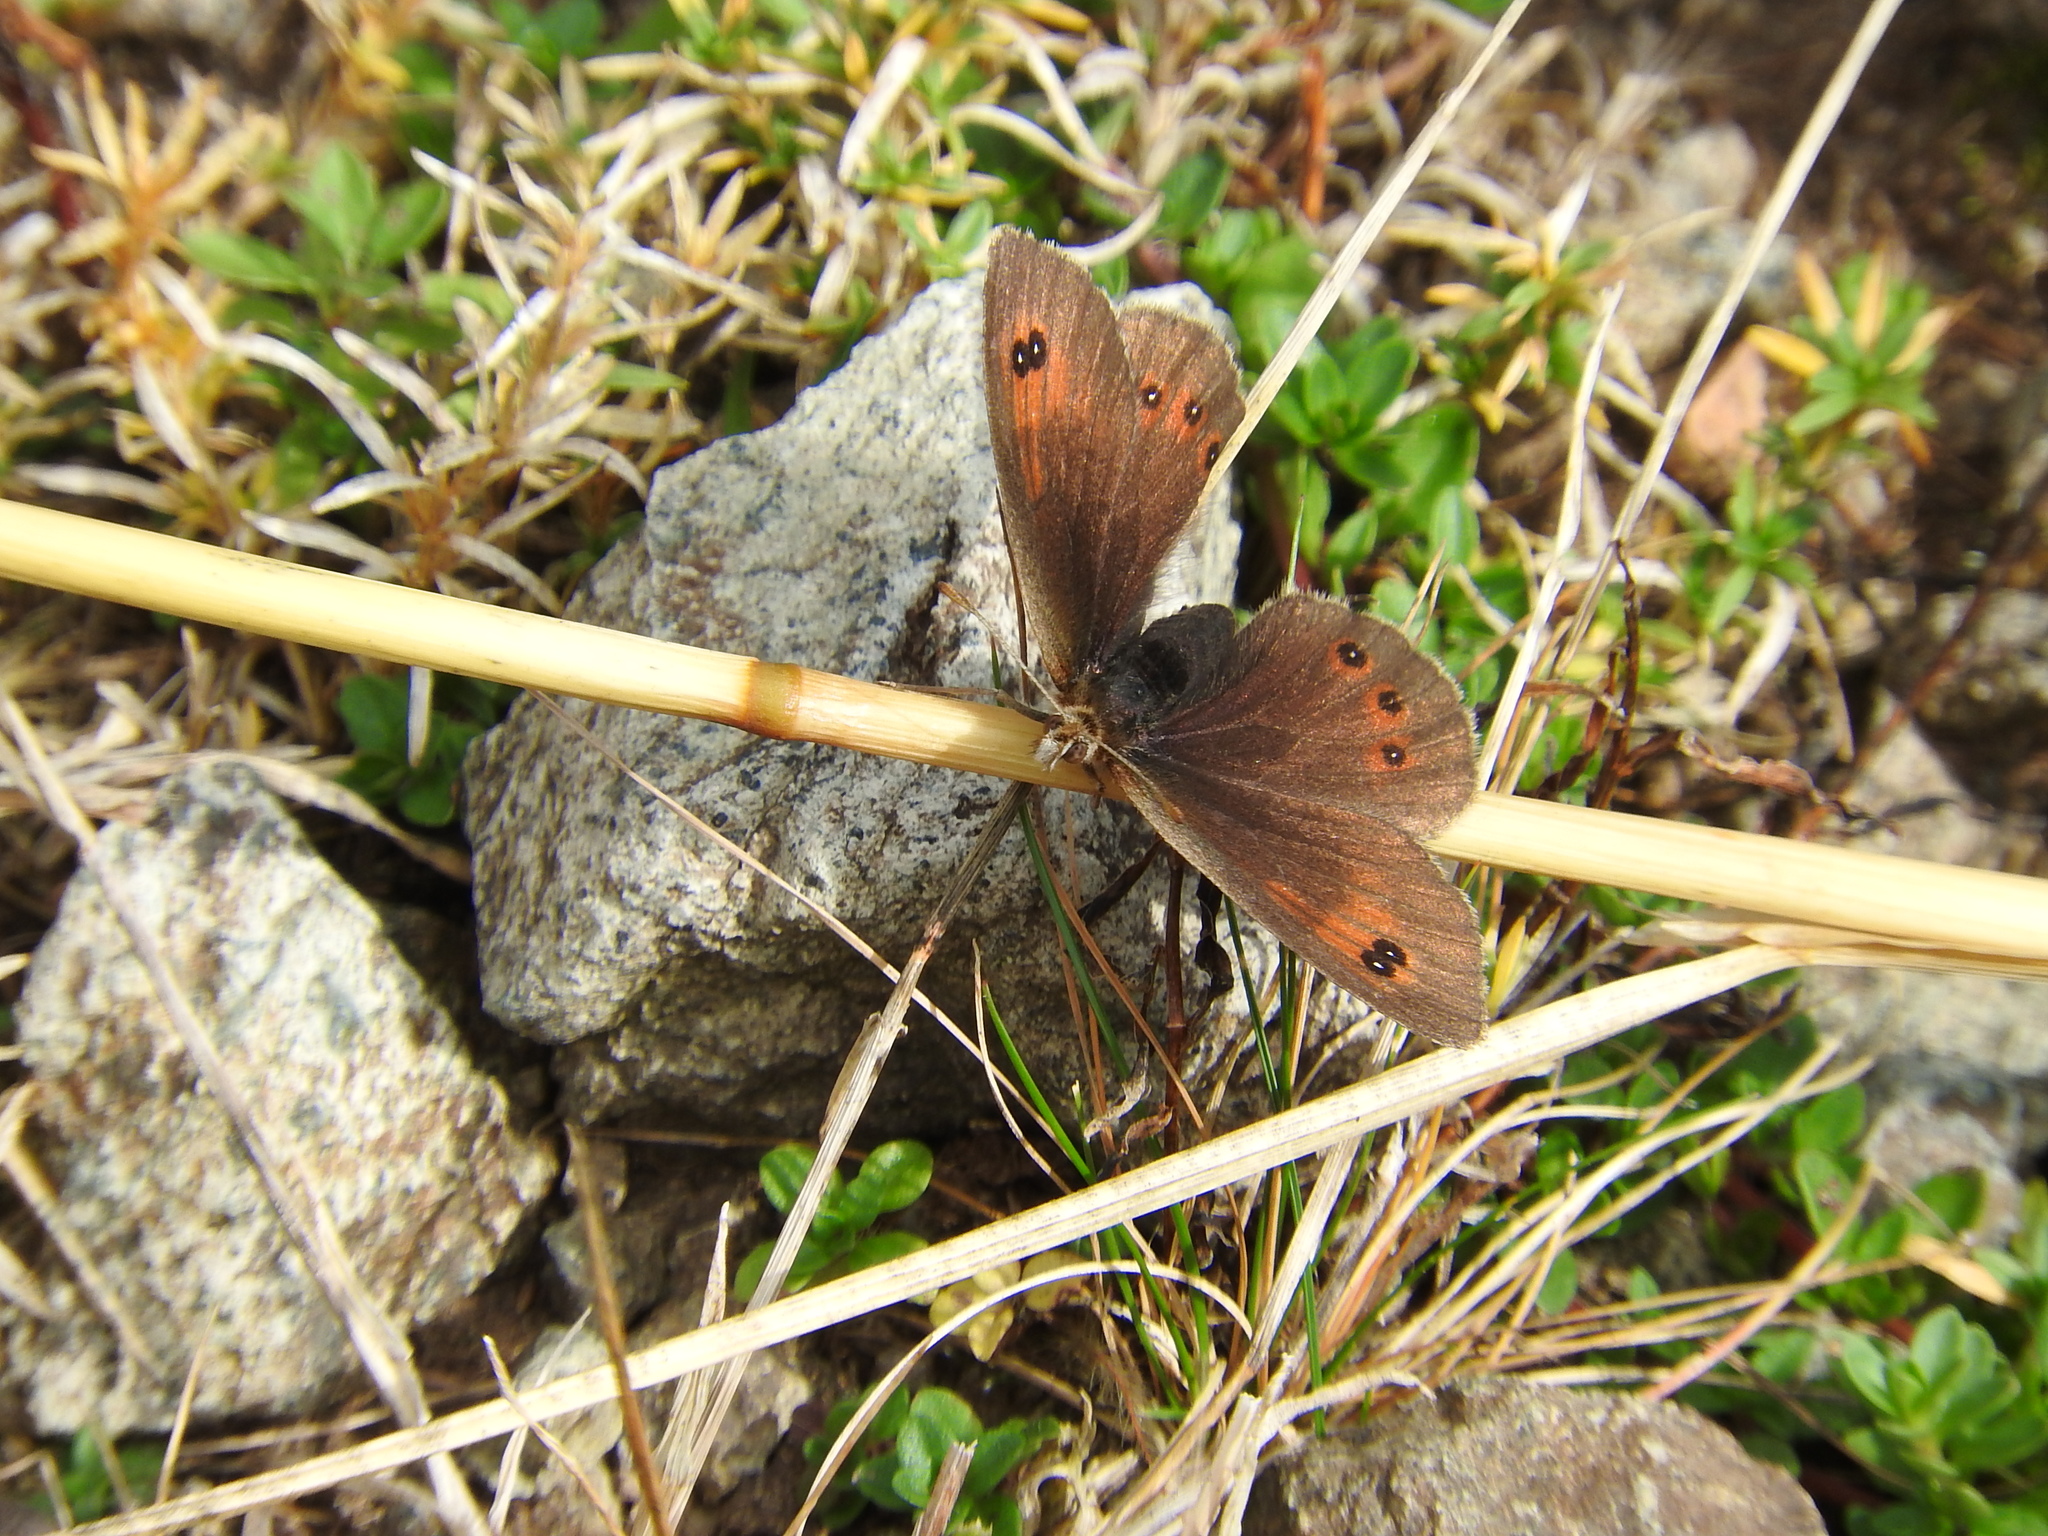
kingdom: Animalia
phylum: Arthropoda
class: Insecta
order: Lepidoptera
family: Nymphalidae
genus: Erebia
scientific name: Erebia cassioides
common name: Common brassy ringlet
